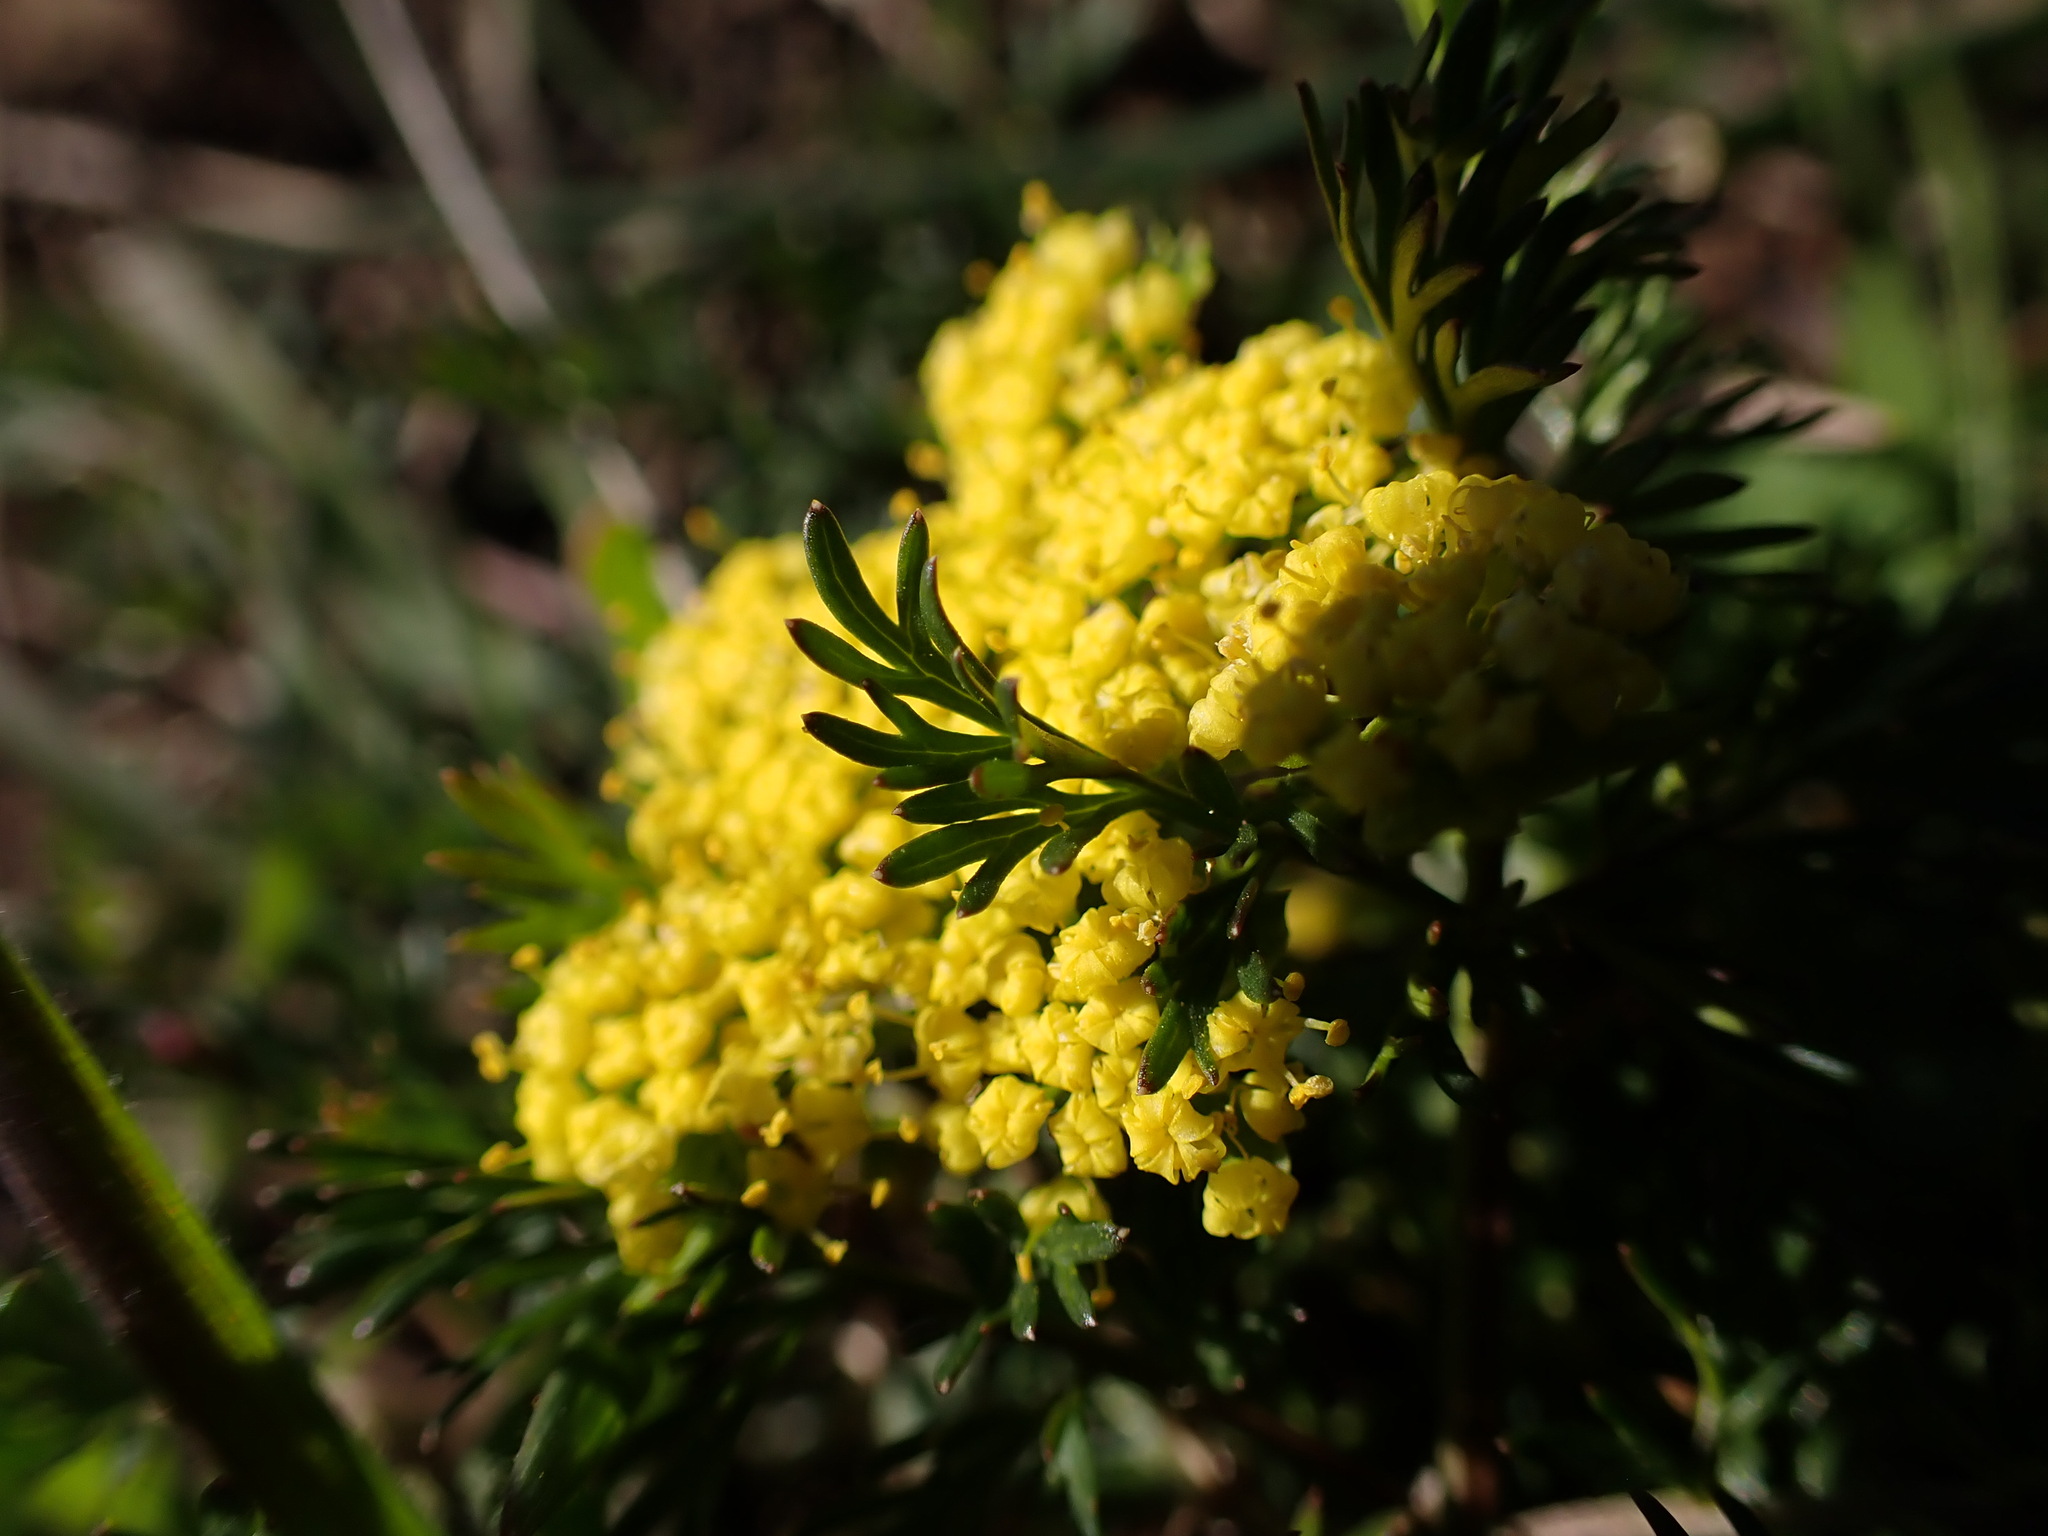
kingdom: Plantae
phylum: Tracheophyta
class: Magnoliopsida
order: Apiales
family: Apiaceae
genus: Lomatium
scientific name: Lomatium utriculatum
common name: Fine-leaf desert-parsley
